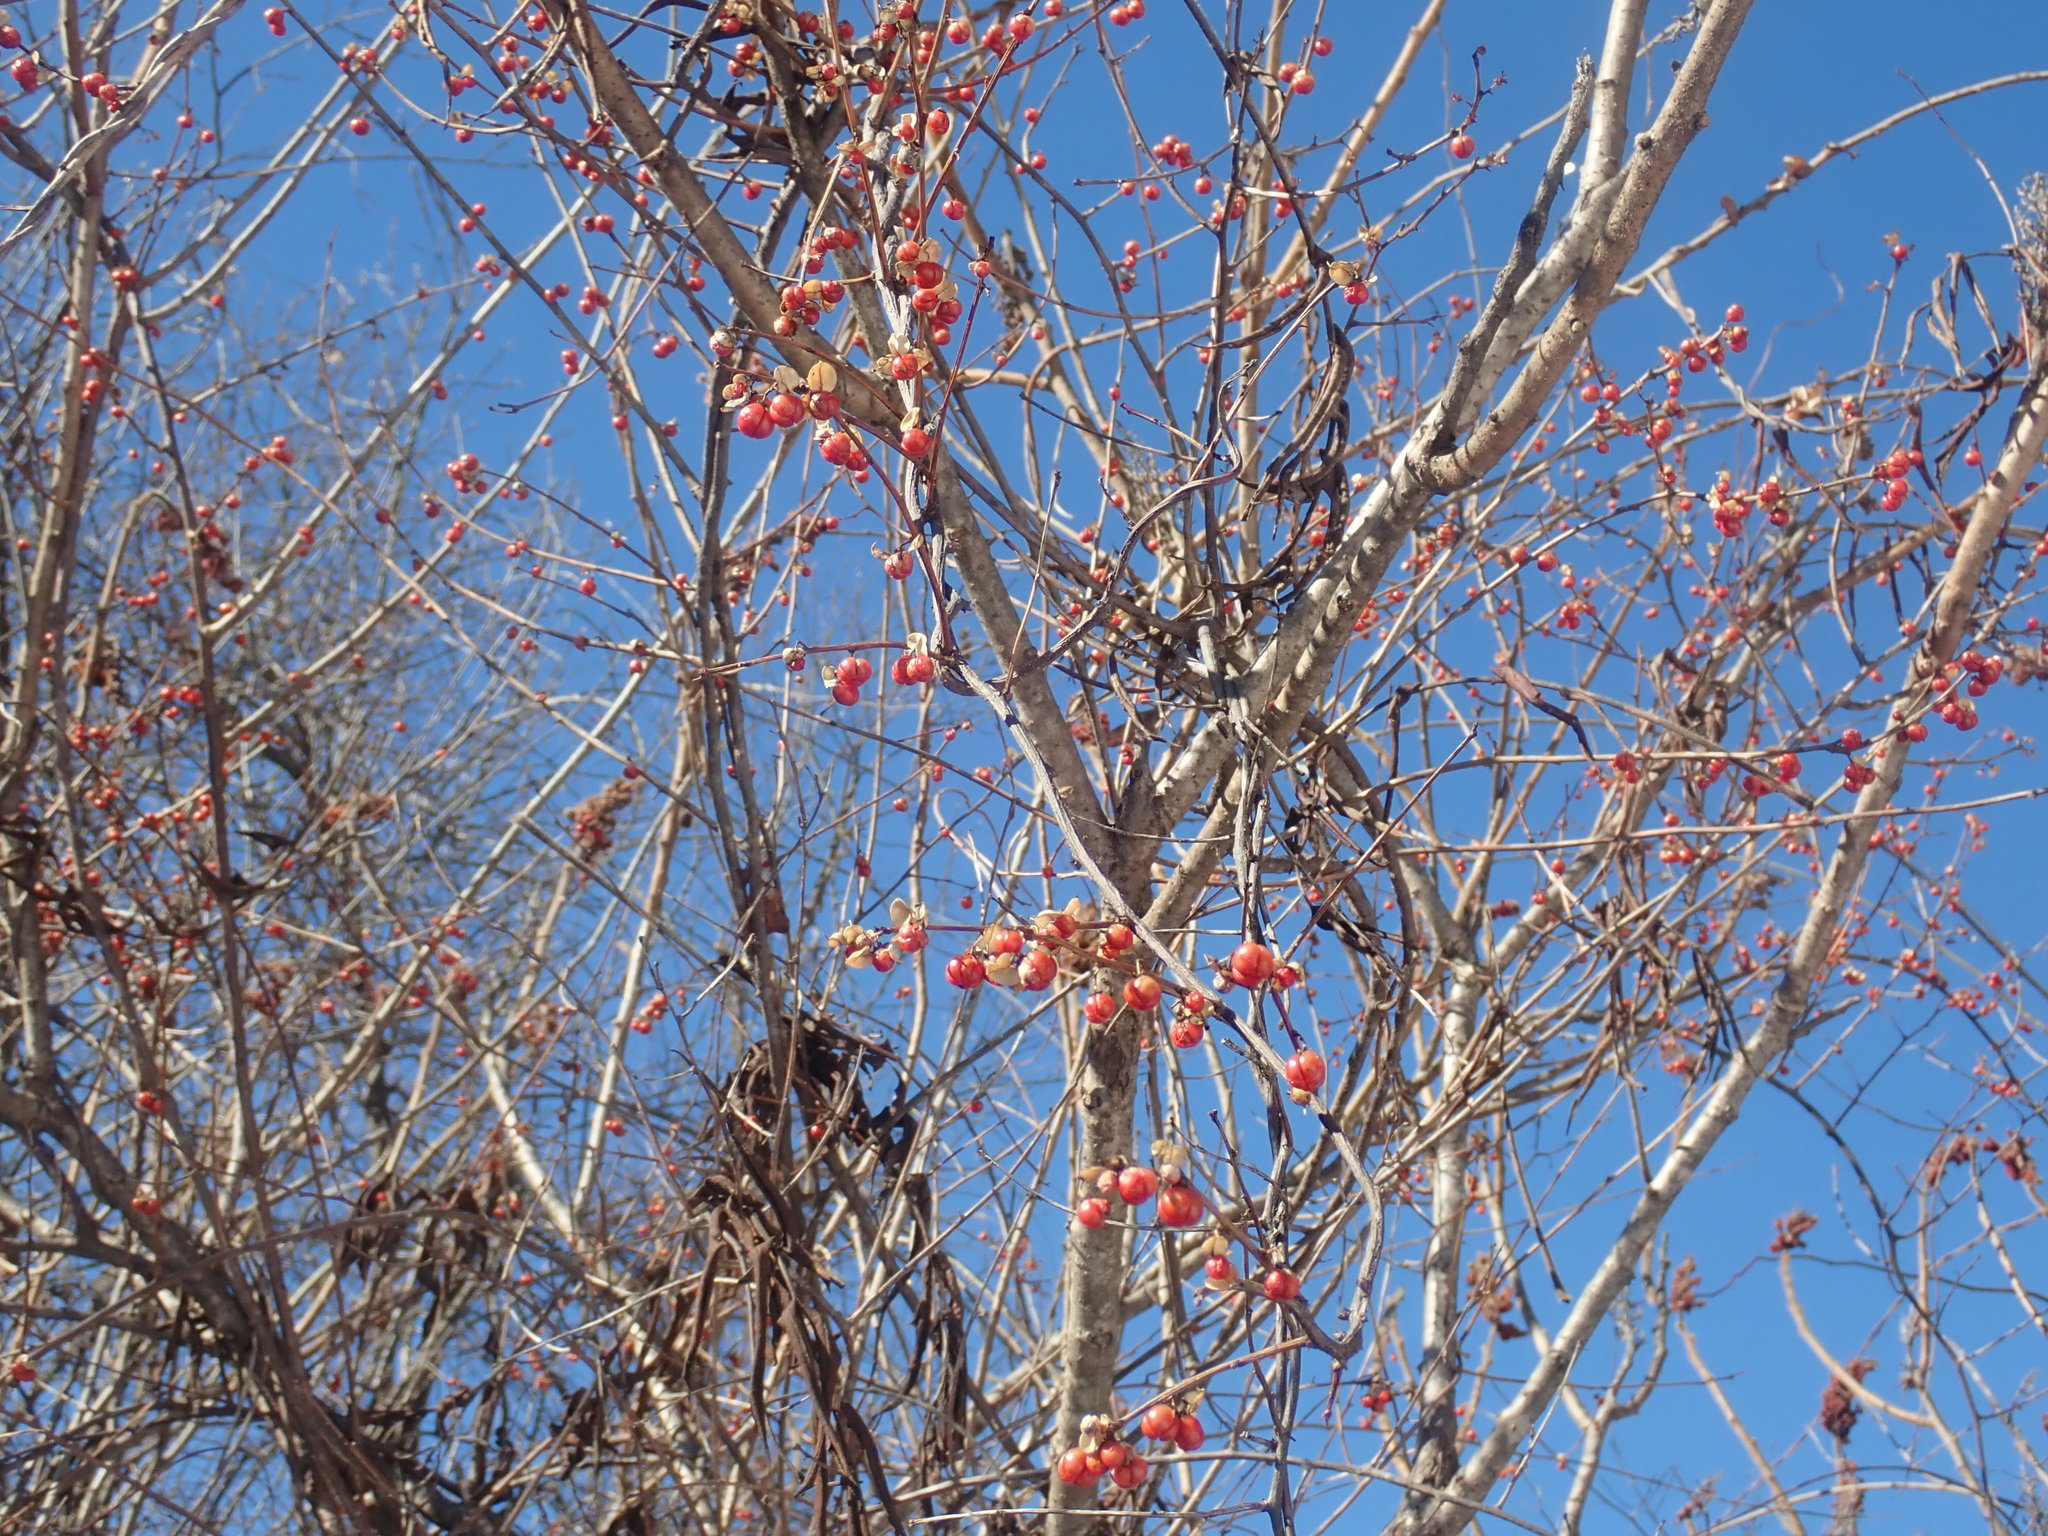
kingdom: Plantae
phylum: Tracheophyta
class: Magnoliopsida
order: Celastrales
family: Celastraceae
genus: Celastrus
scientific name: Celastrus orbiculatus
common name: Oriental bittersweet
